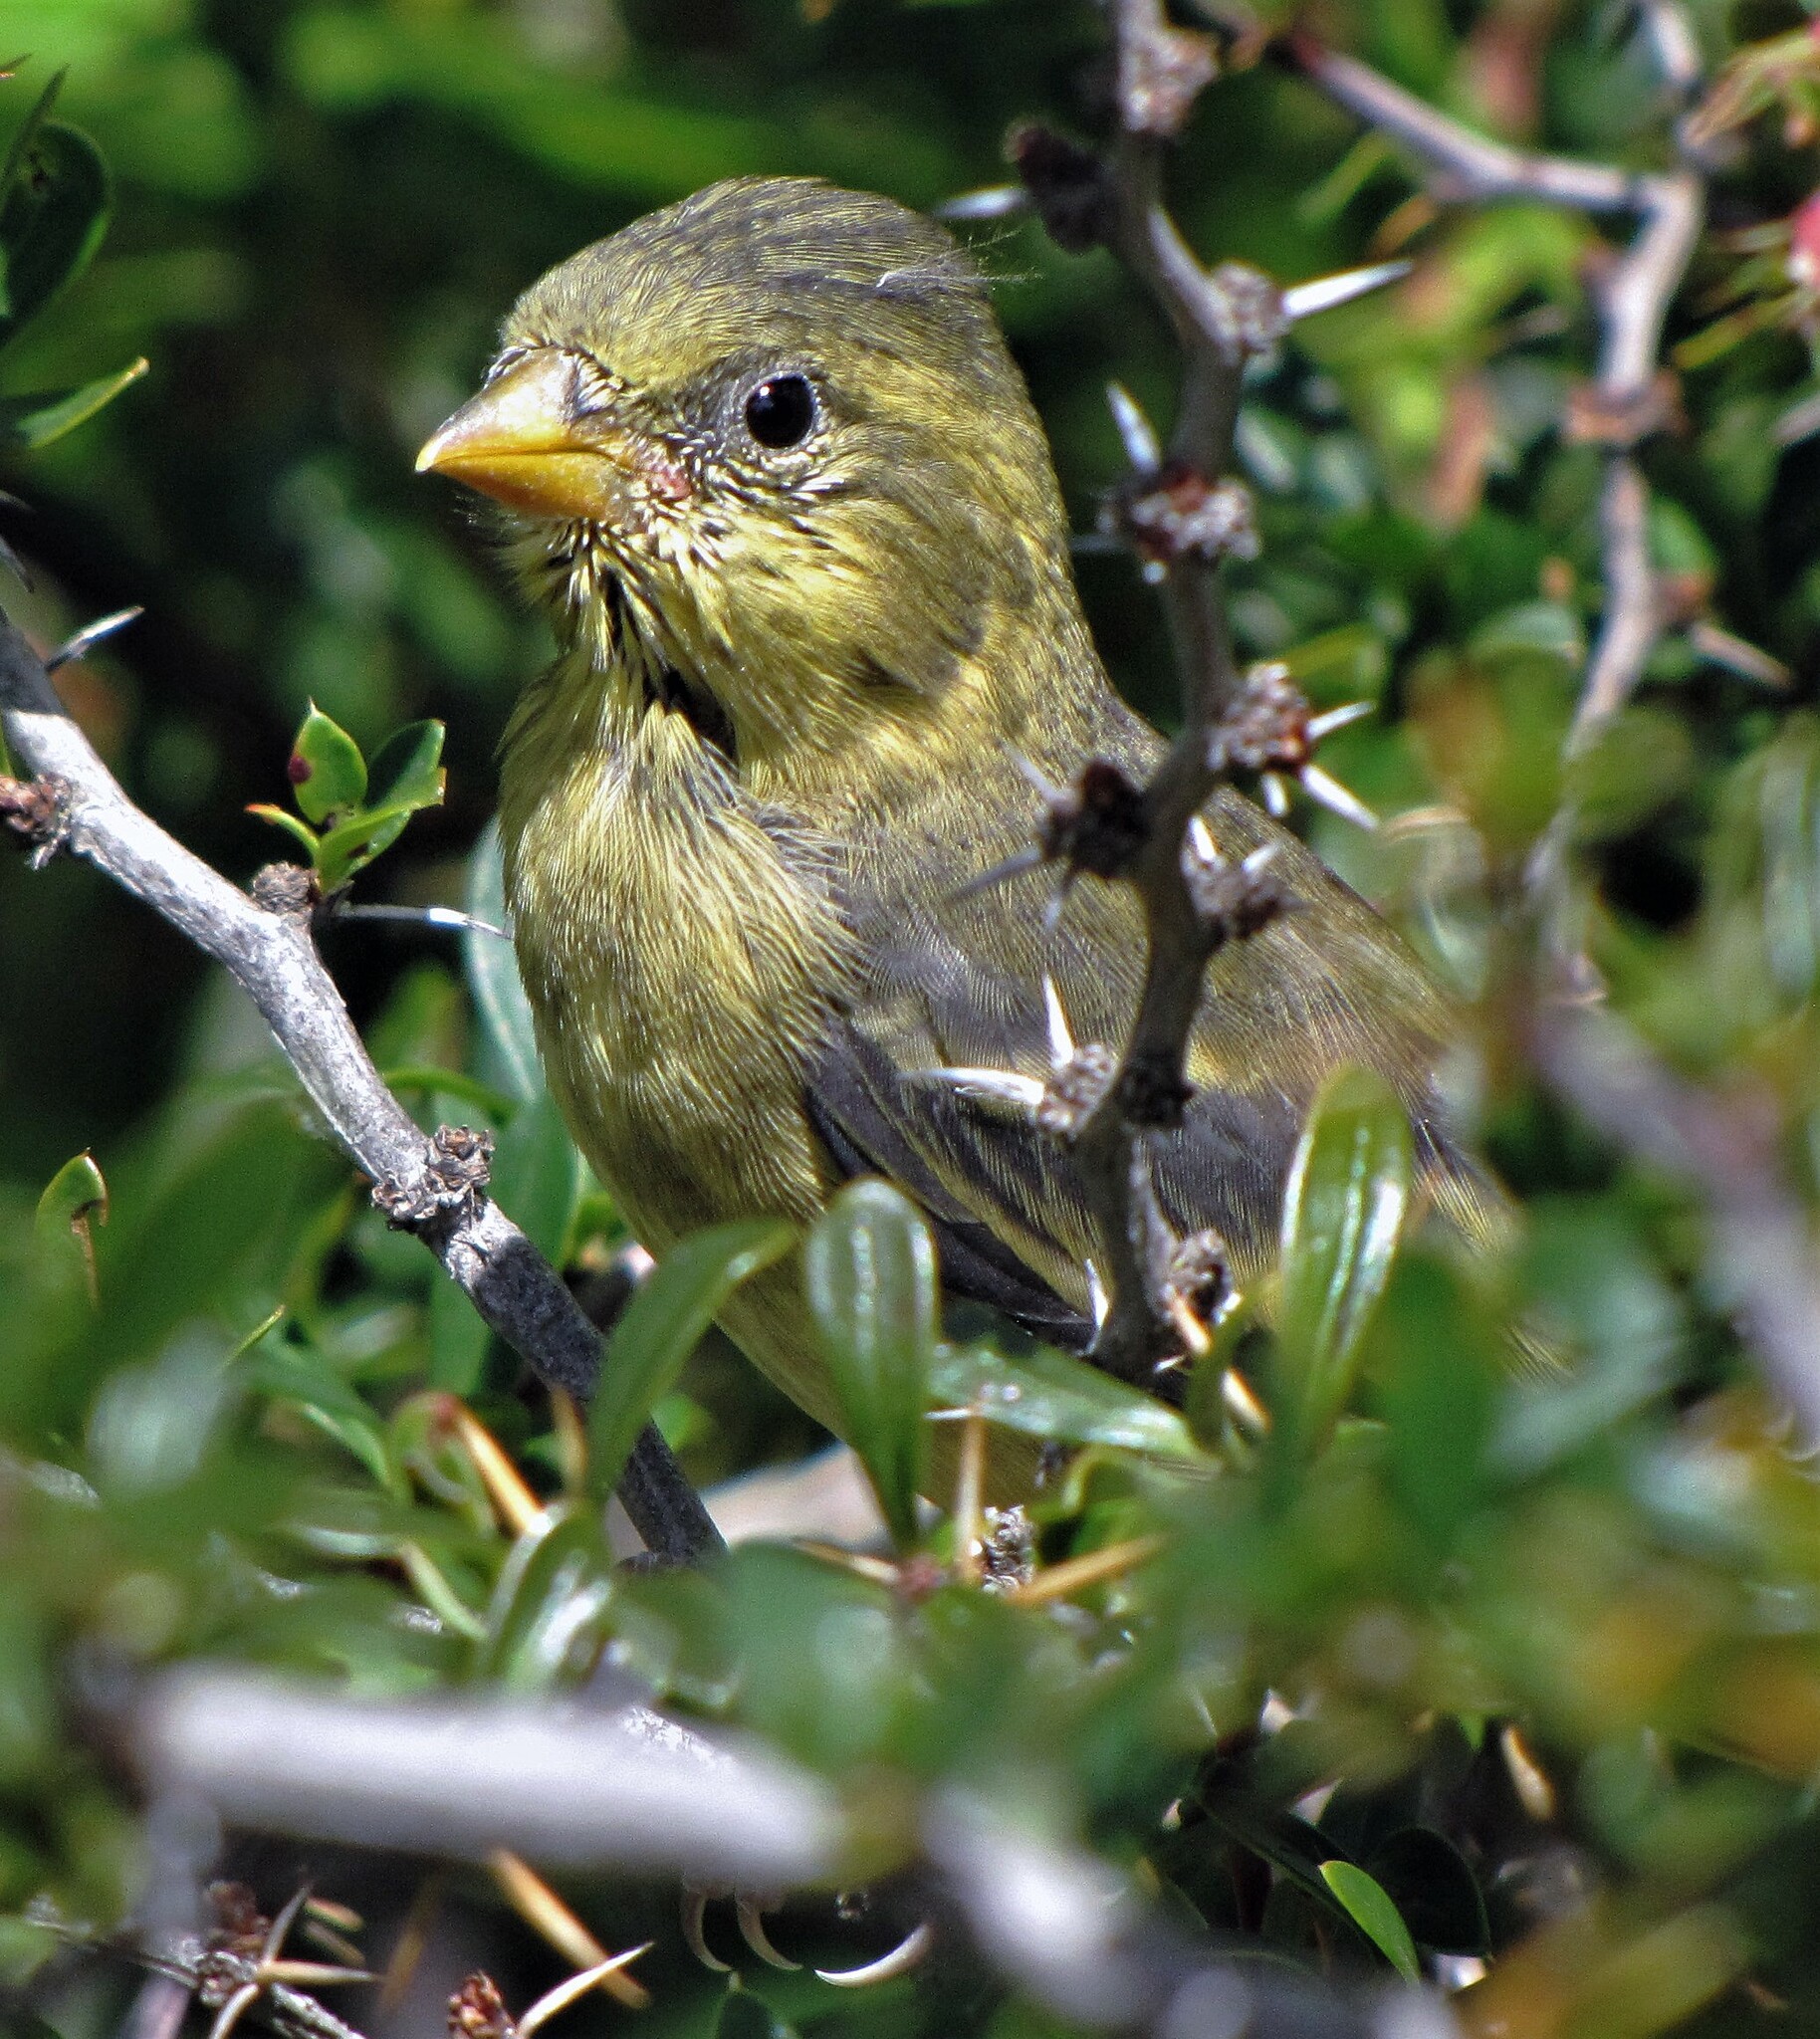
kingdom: Animalia
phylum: Chordata
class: Aves
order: Passeriformes
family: Fringillidae
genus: Spinus
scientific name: Spinus barbatus
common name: Black-chinned siskin
